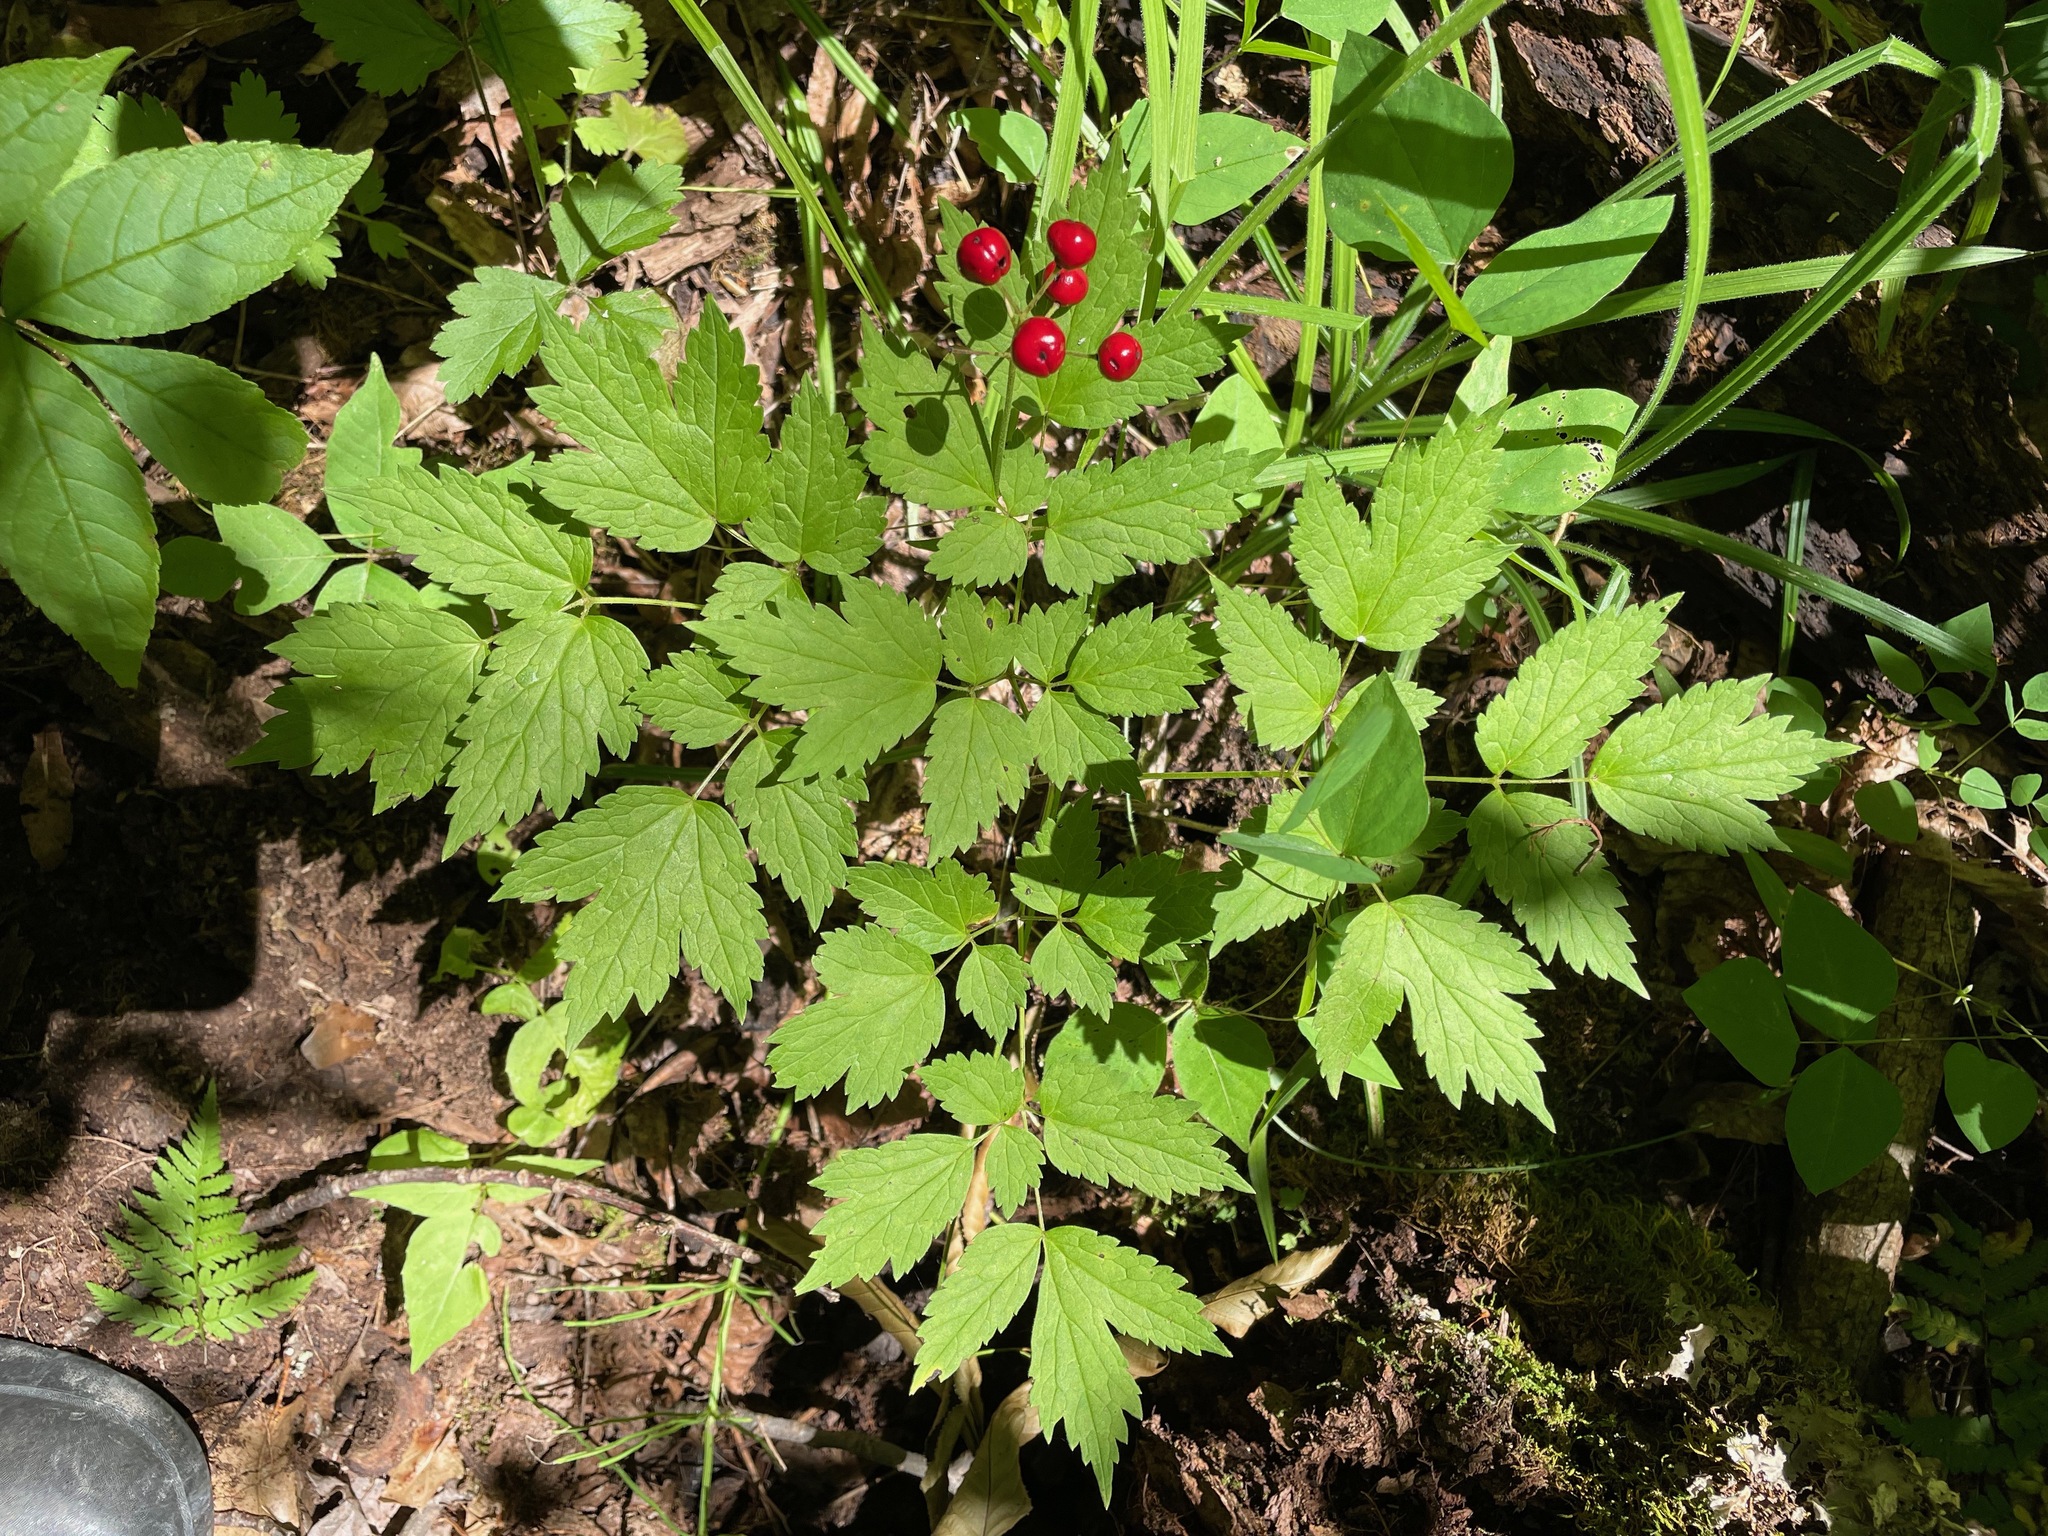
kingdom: Plantae
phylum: Tracheophyta
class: Magnoliopsida
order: Ranunculales
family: Ranunculaceae
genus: Actaea
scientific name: Actaea rubra
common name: Red baneberry
